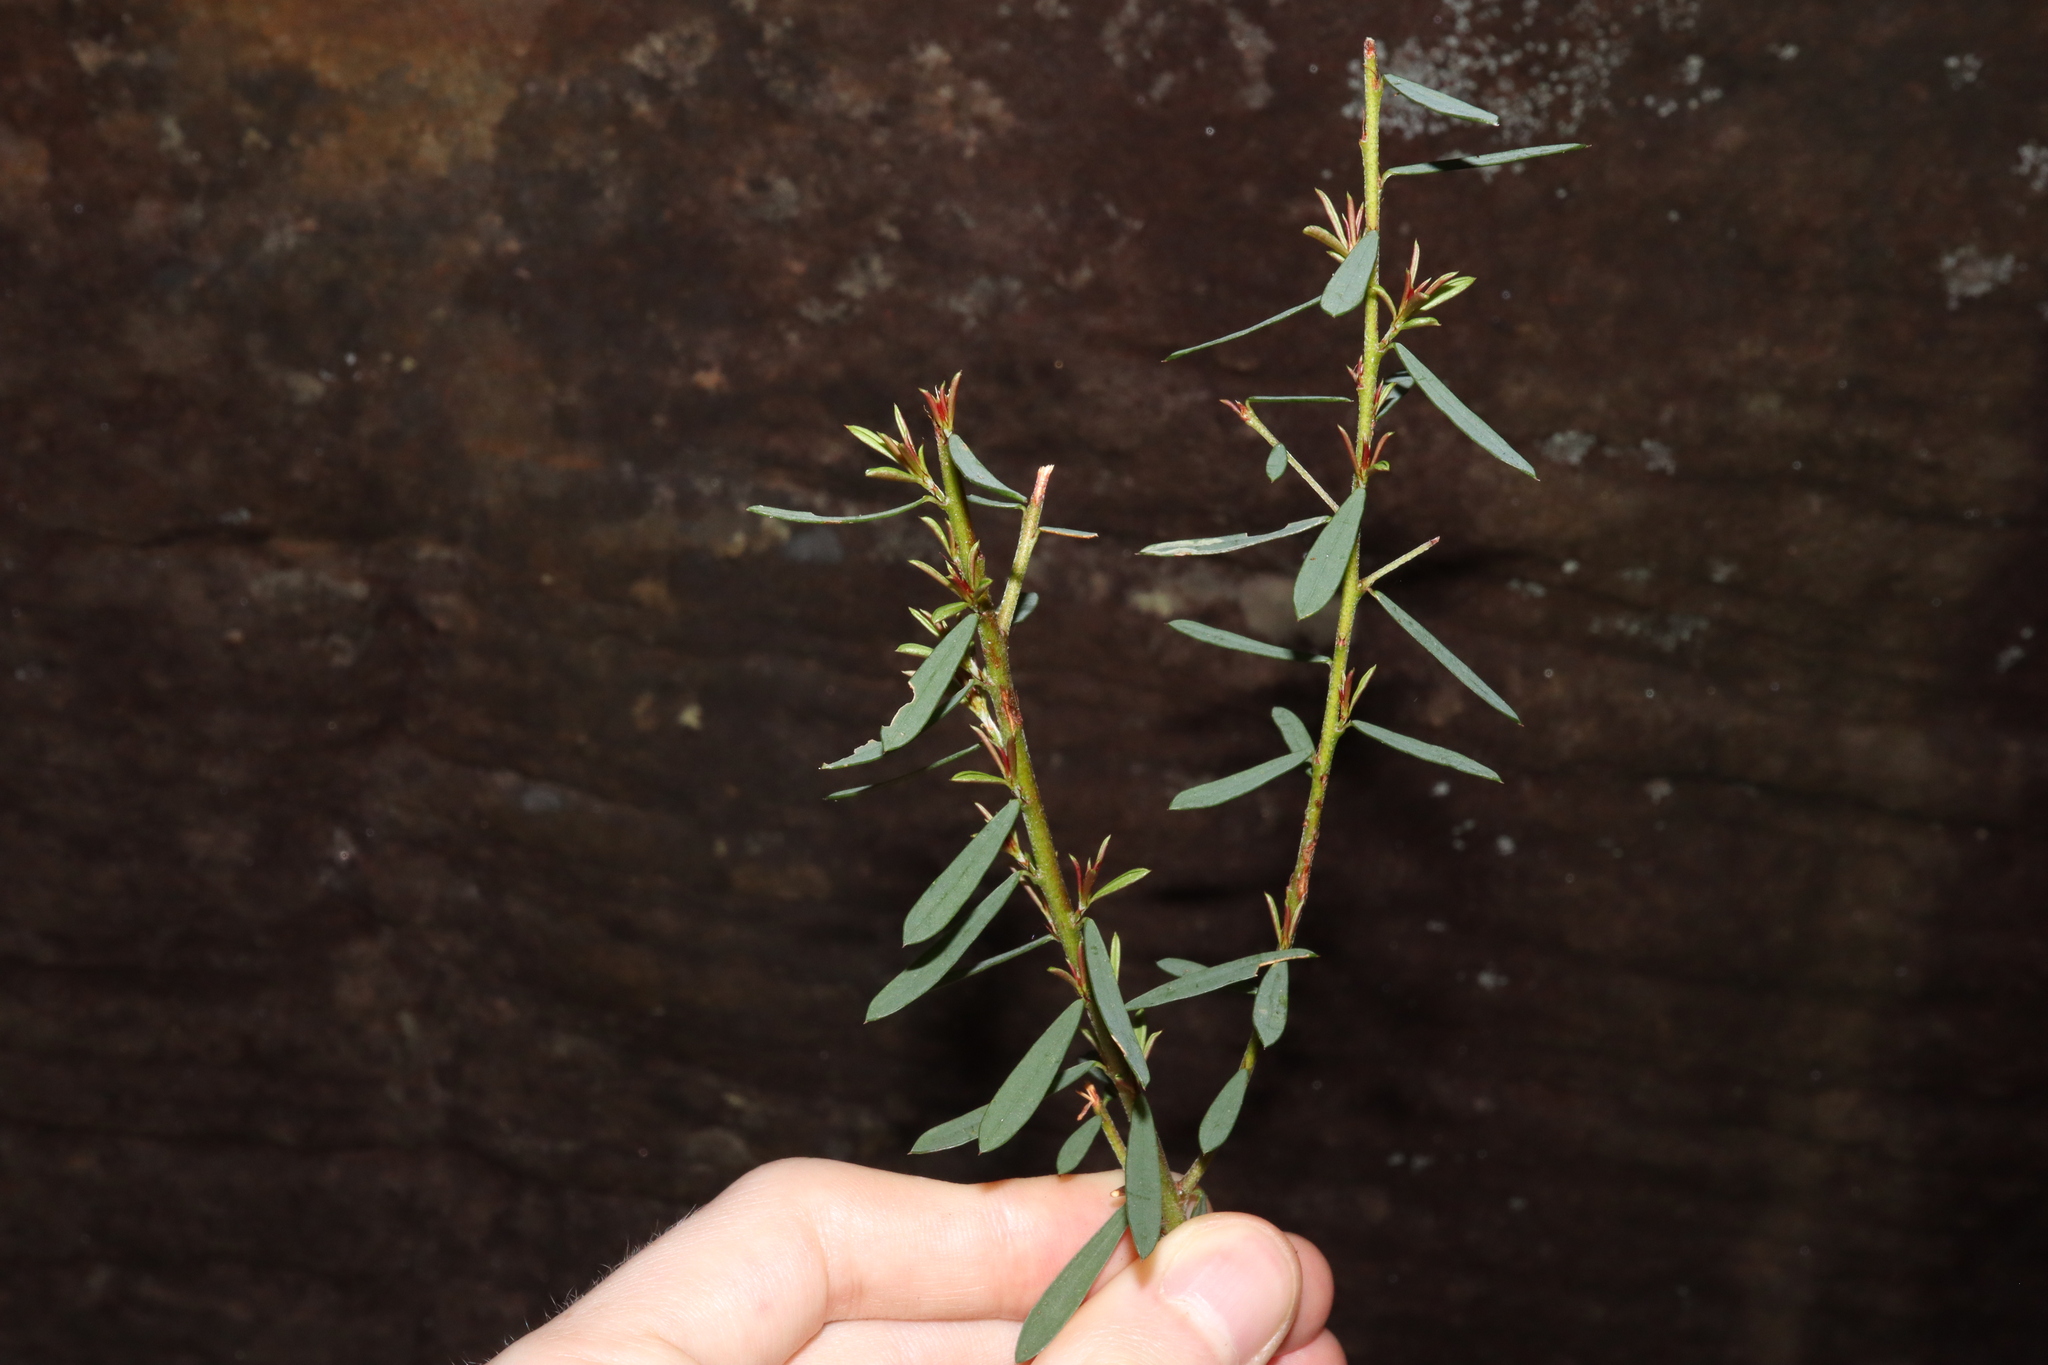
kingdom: Plantae
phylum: Tracheophyta
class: Magnoliopsida
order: Fabales
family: Fabaceae
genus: Pultenaea
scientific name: Pultenaea flexilis
